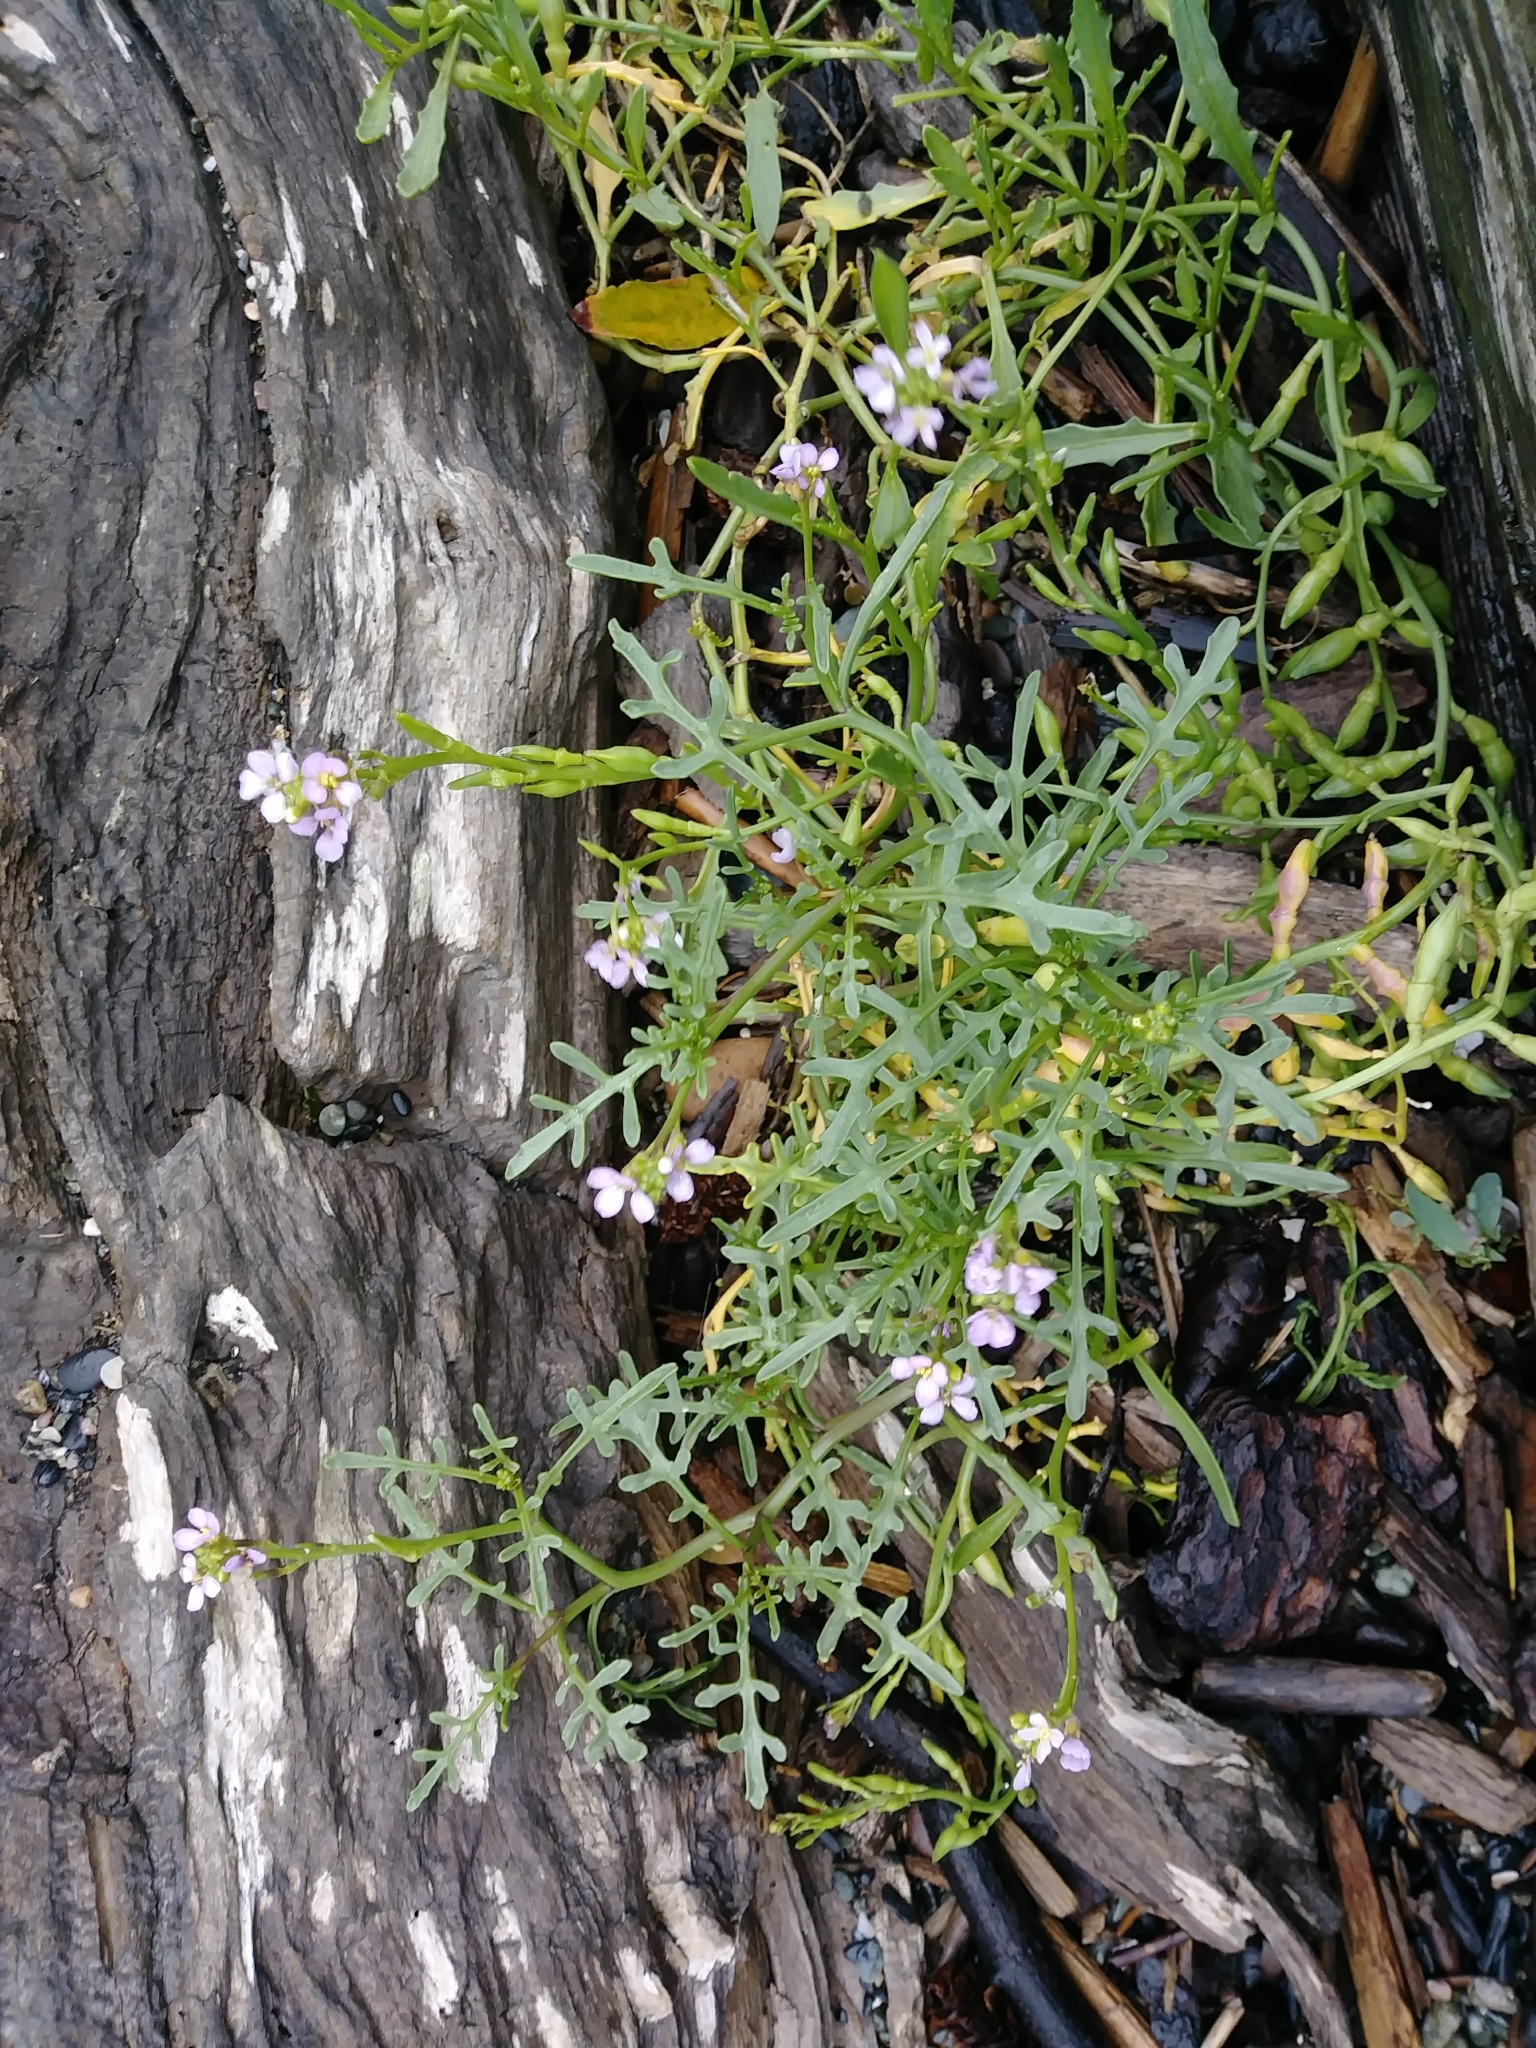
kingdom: Plantae
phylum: Tracheophyta
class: Magnoliopsida
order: Brassicales
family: Brassicaceae
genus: Cakile
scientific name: Cakile maritima
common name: Sea rocket
